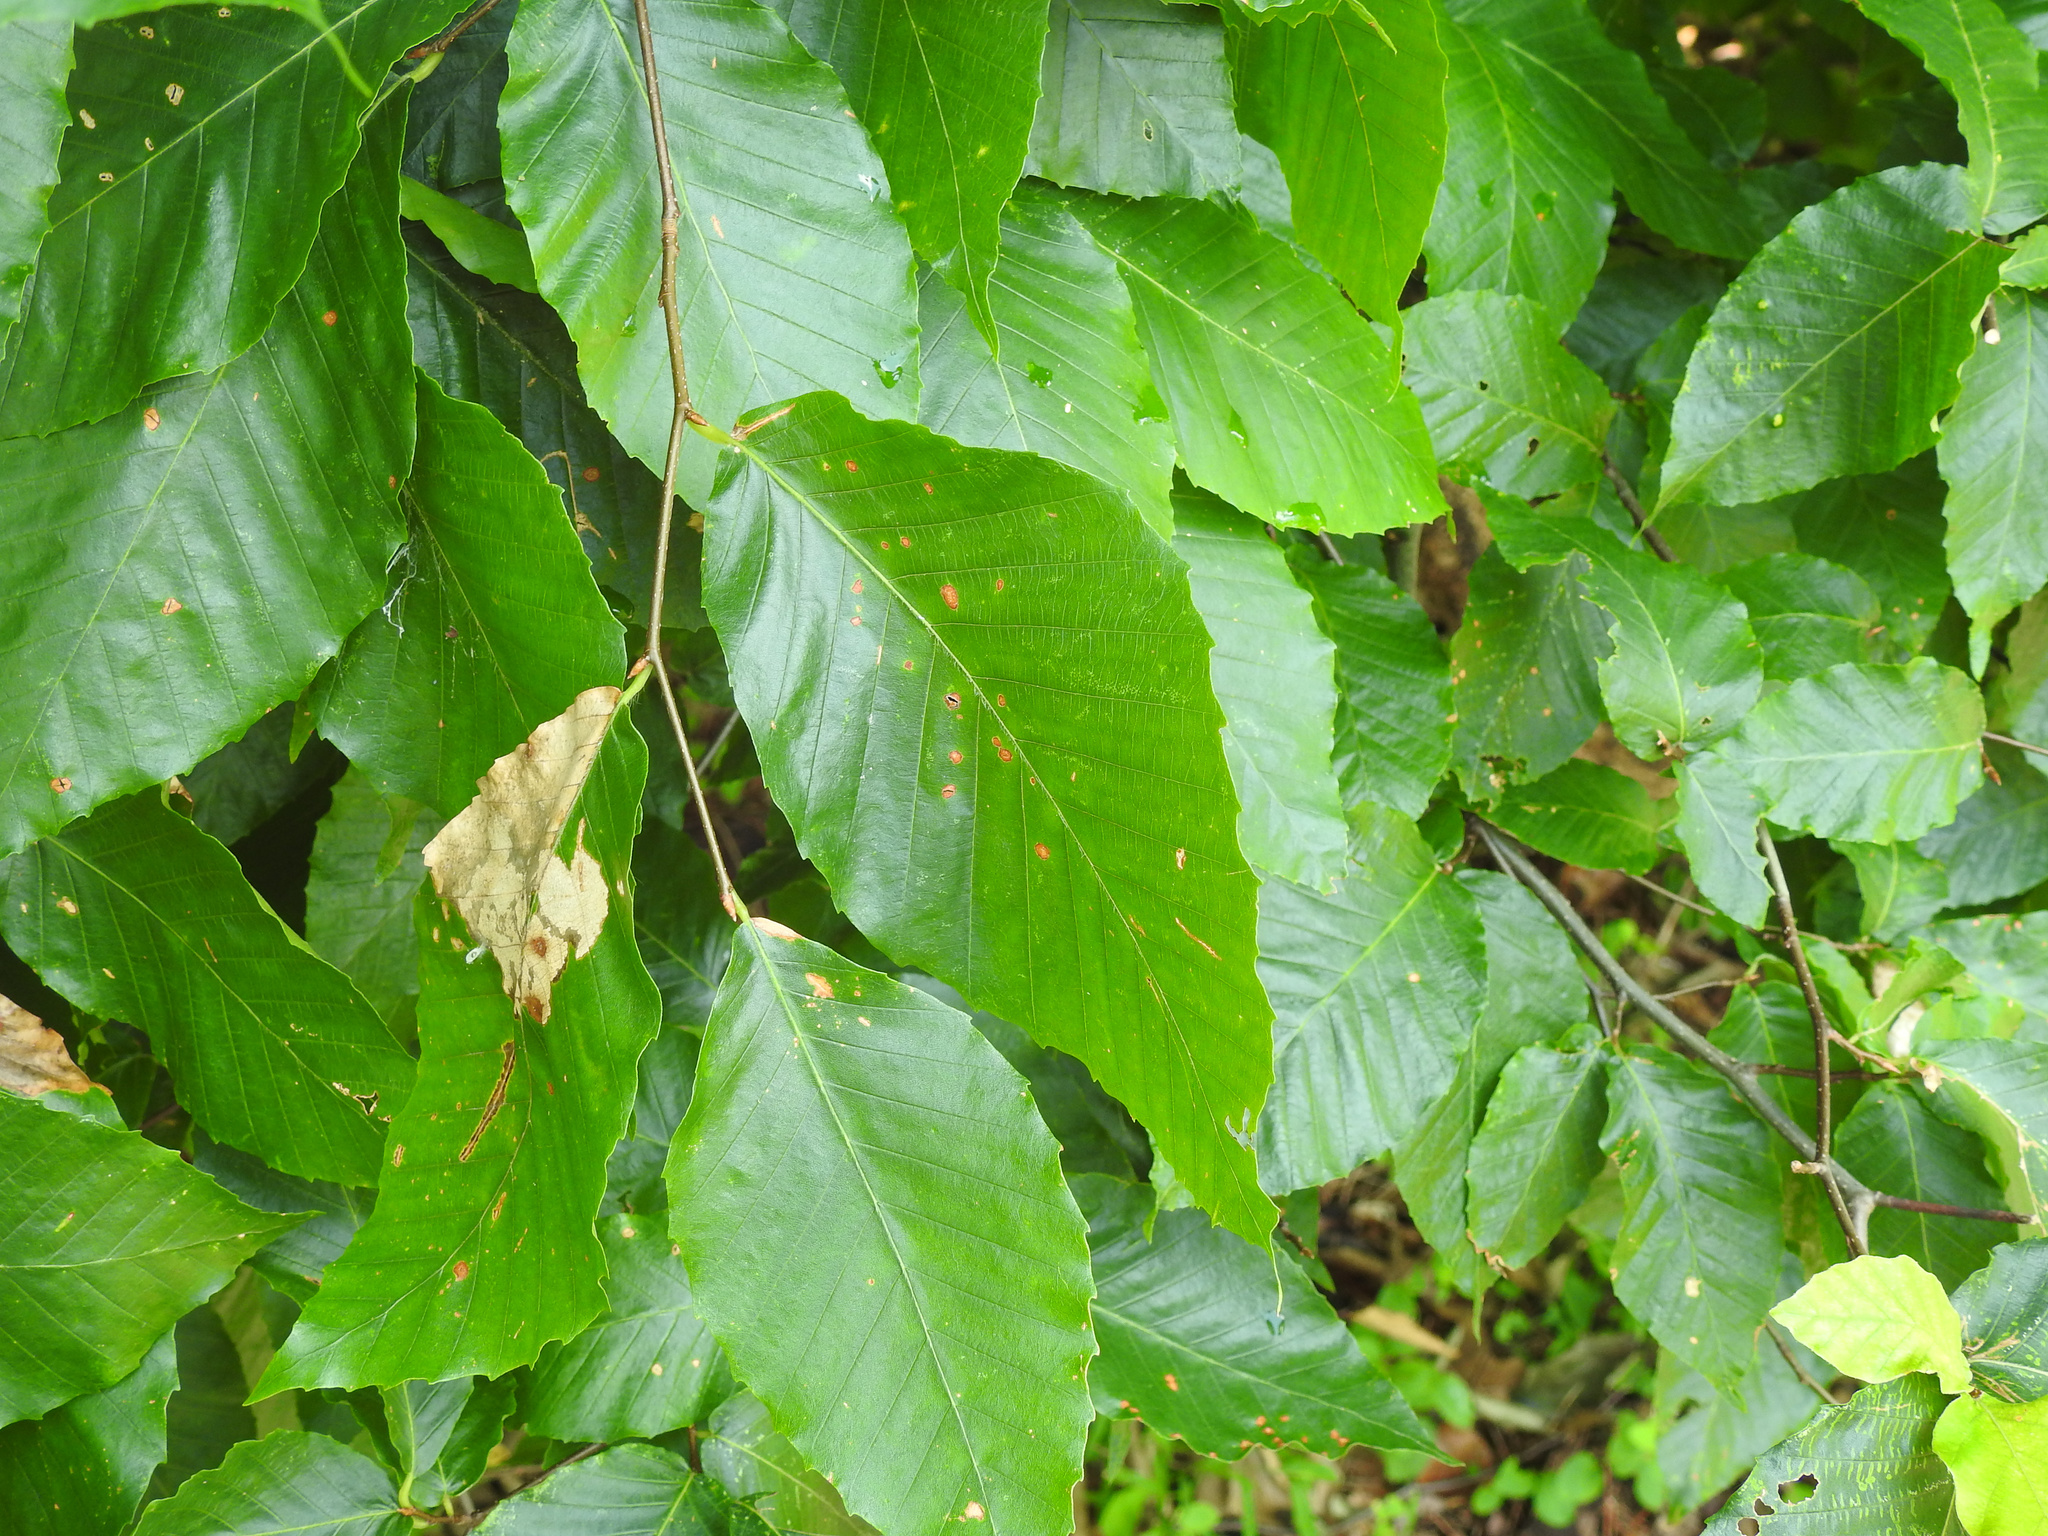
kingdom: Plantae
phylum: Tracheophyta
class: Magnoliopsida
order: Fagales
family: Fagaceae
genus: Fagus
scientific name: Fagus grandifolia
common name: American beech
